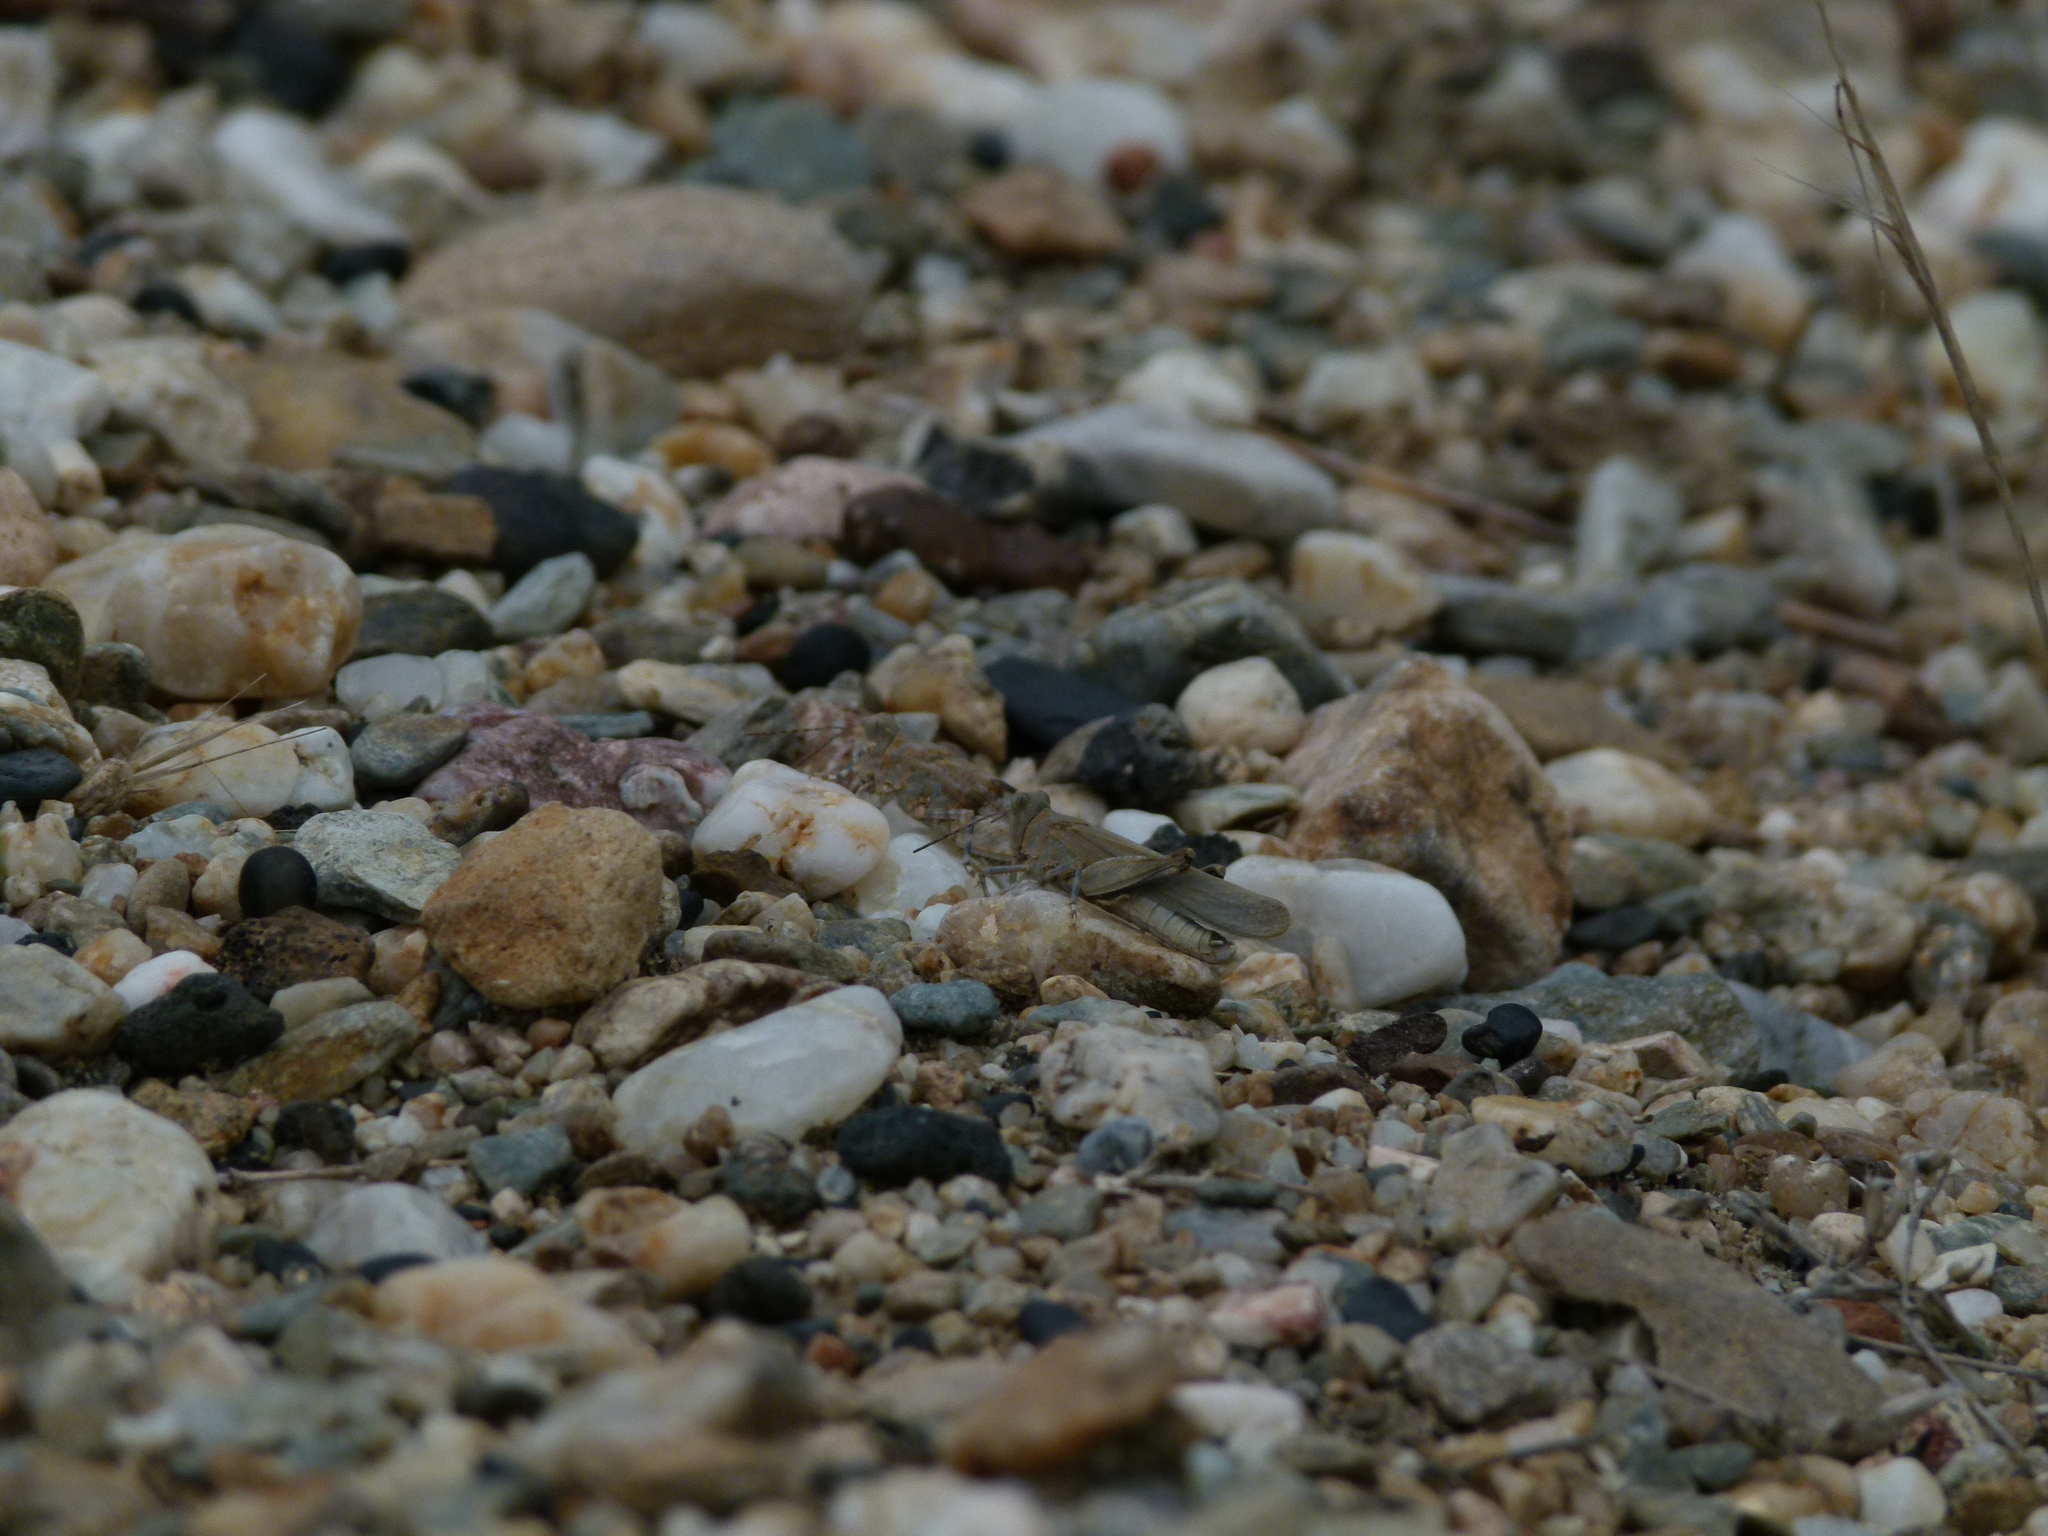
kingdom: Animalia
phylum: Arthropoda
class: Insecta
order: Orthoptera
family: Acrididae
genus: Sphingonotus
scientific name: Sphingonotus caerulans
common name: Blue-winged locust
